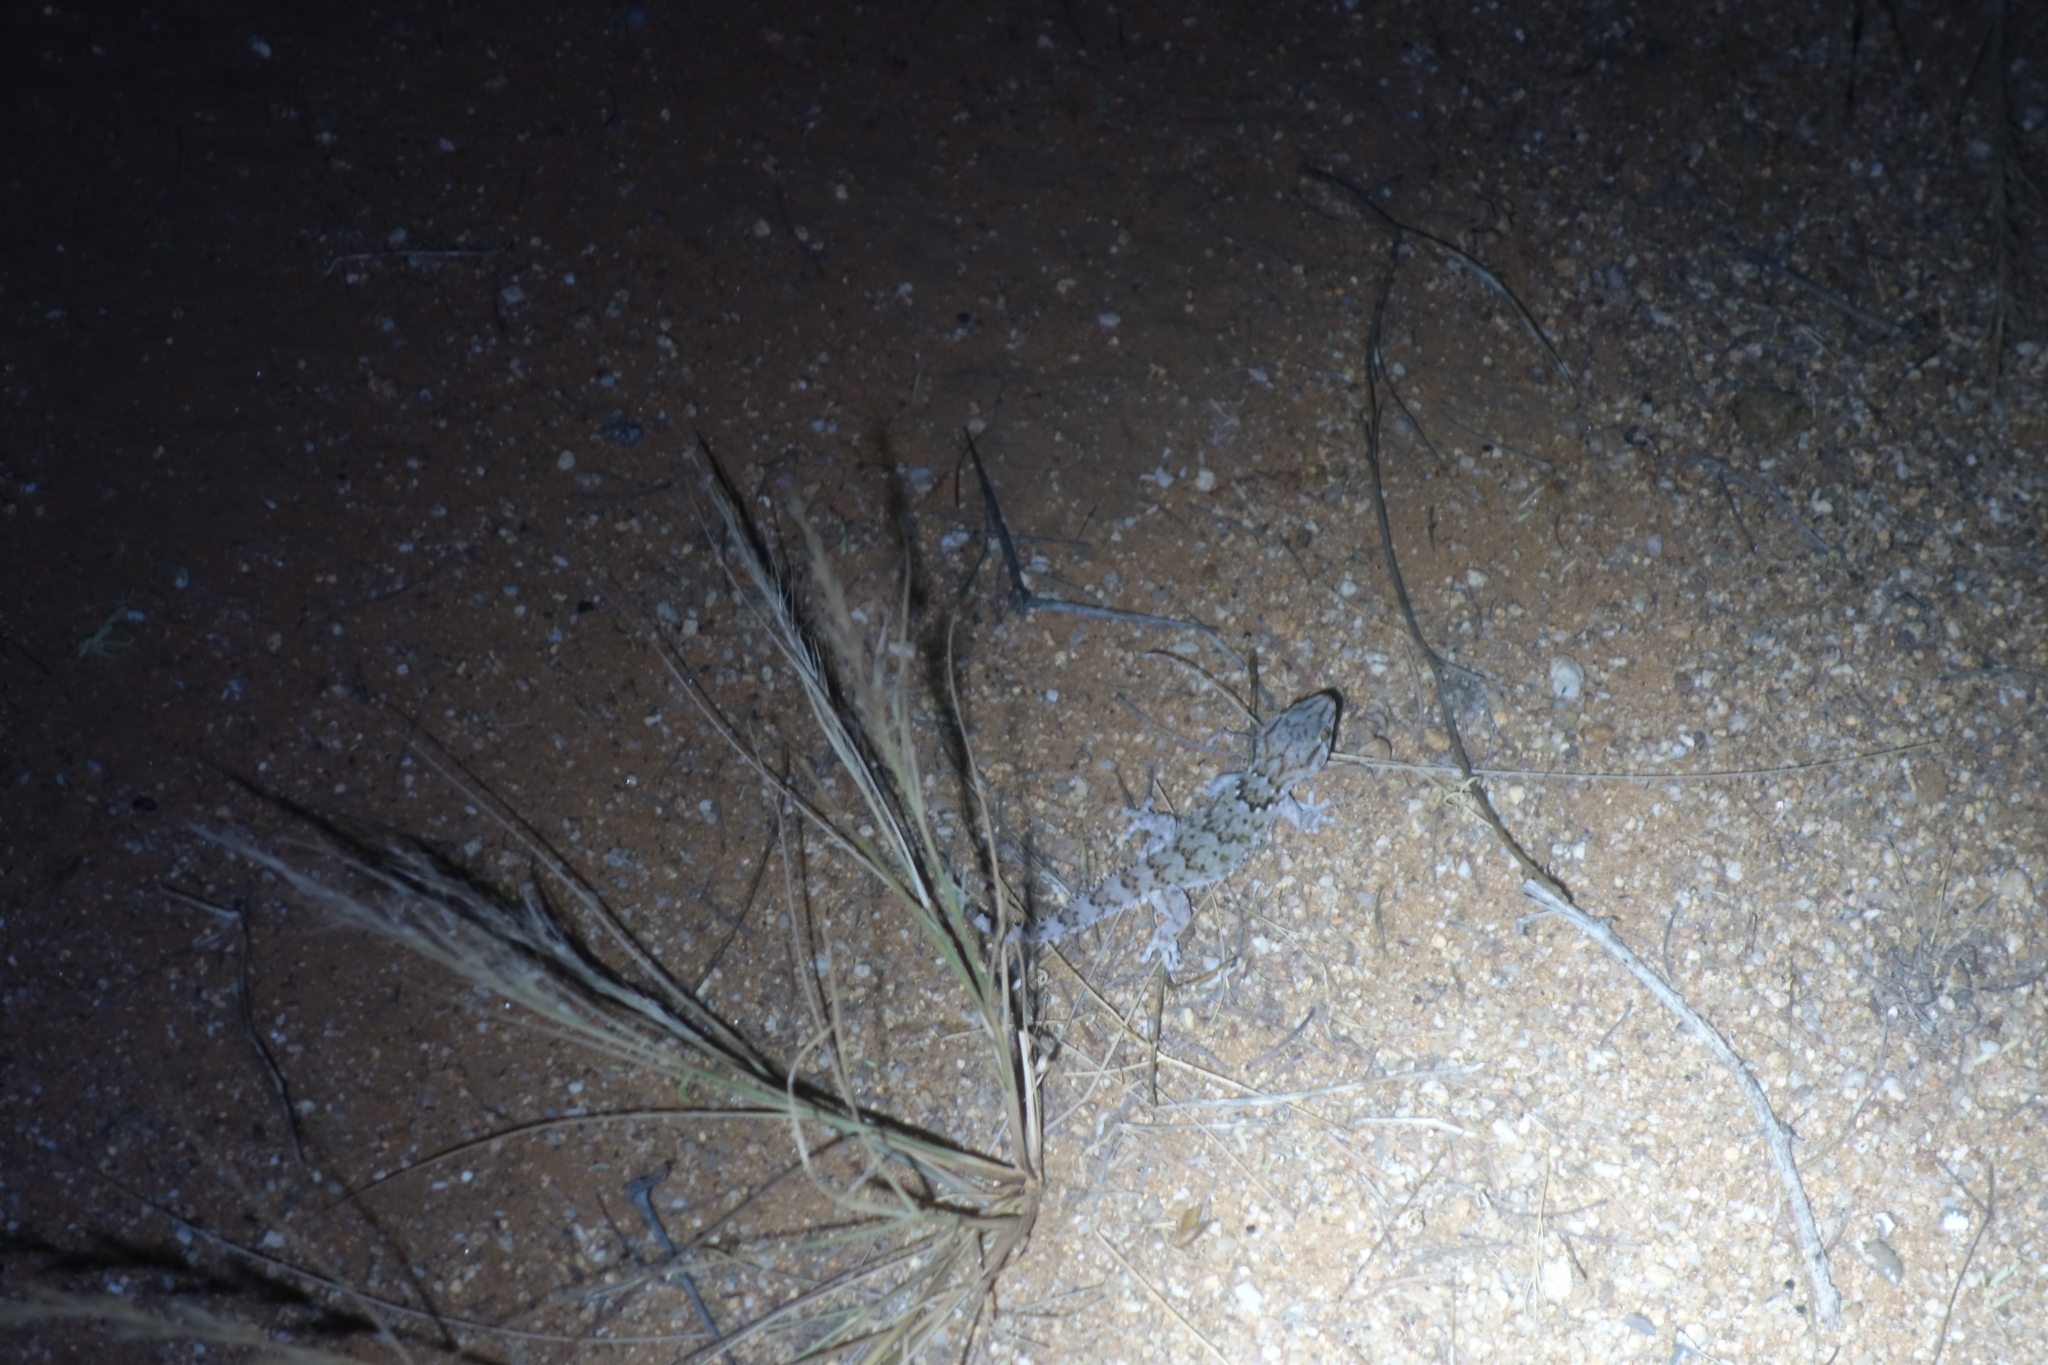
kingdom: Animalia
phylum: Chordata
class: Squamata
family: Gekkonidae
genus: Chondrodactylus
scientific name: Chondrodactylus laevigatus
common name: Fischer's thick-toed gecko
